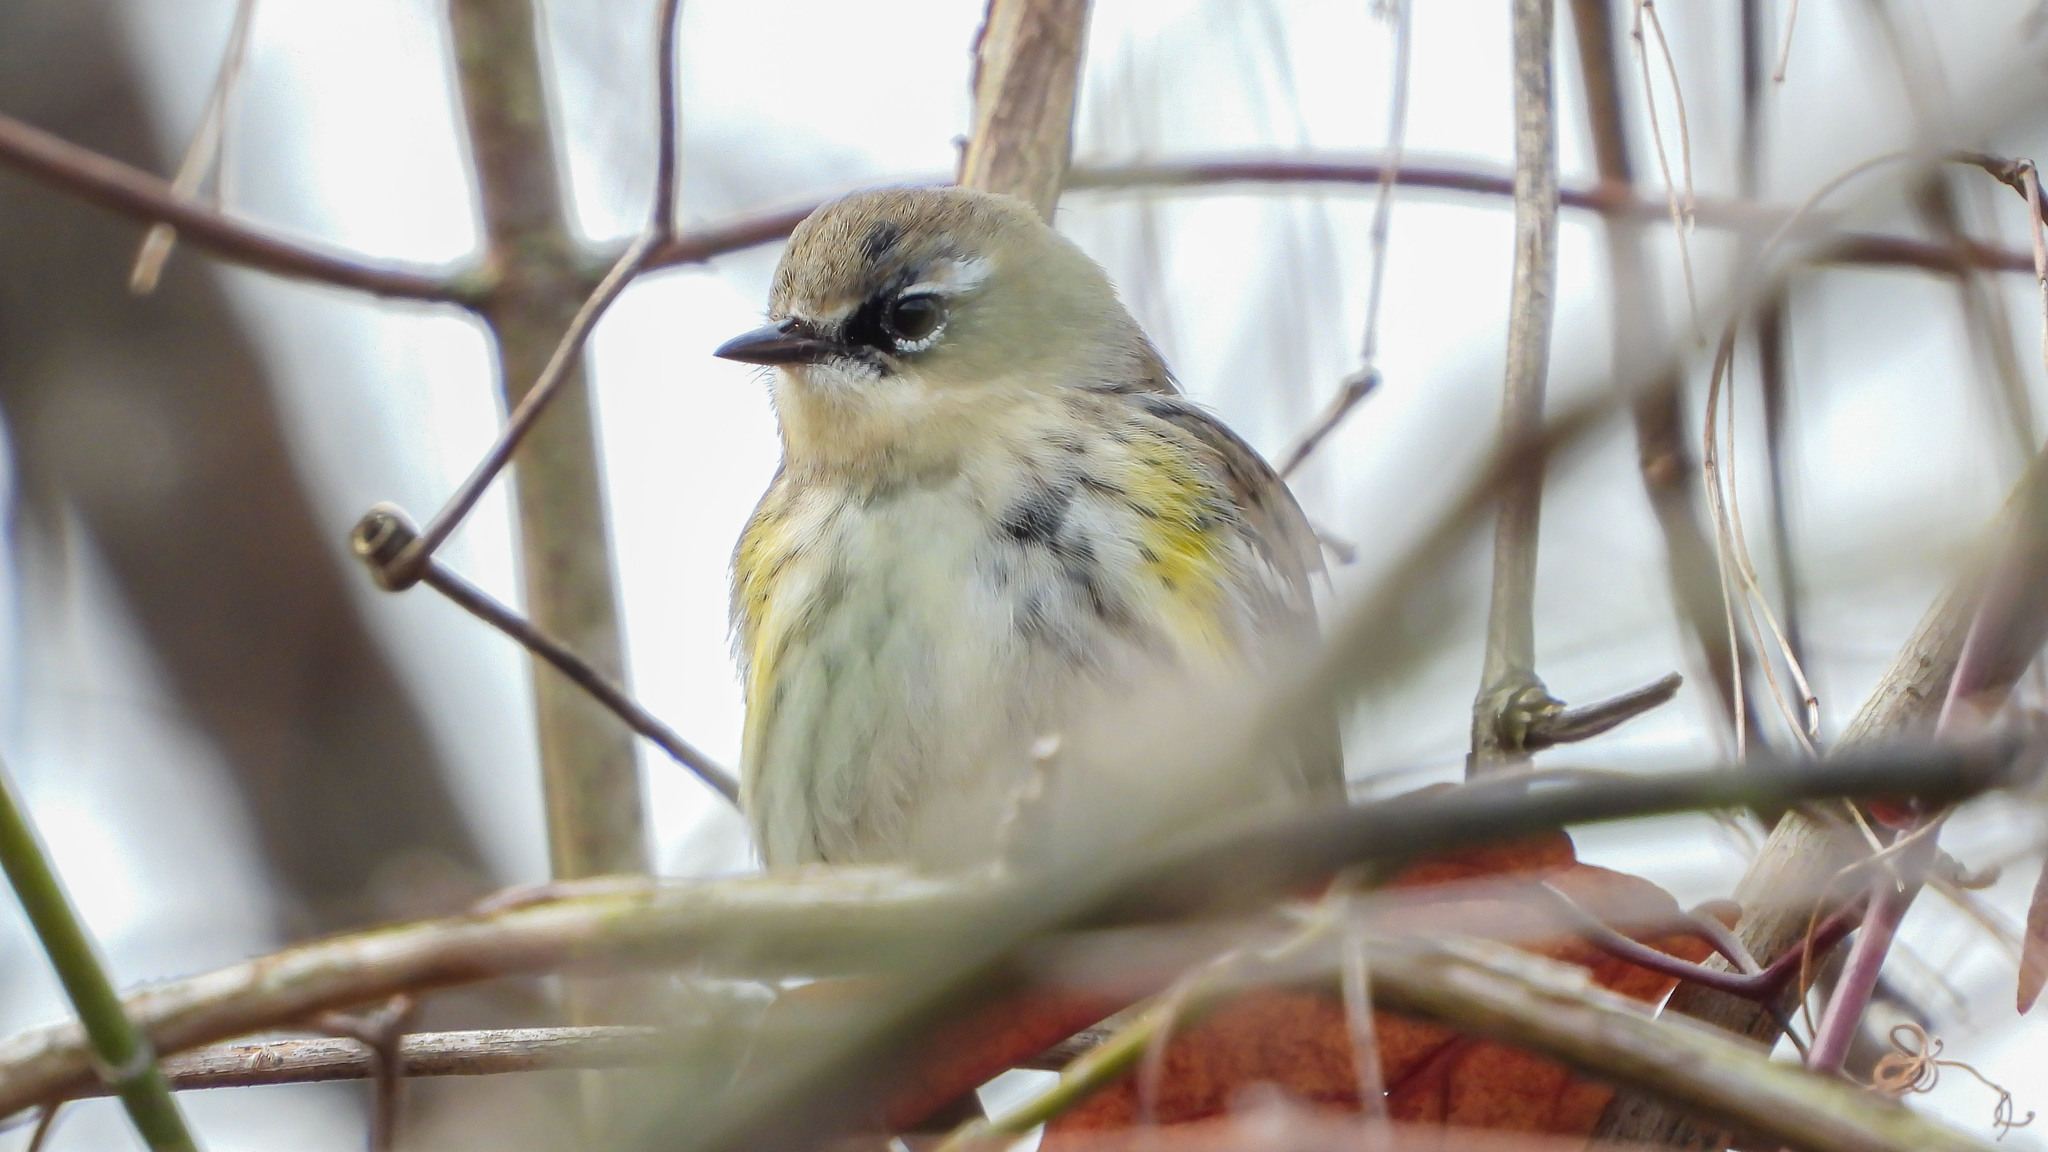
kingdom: Animalia
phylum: Chordata
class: Aves
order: Passeriformes
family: Parulidae
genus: Setophaga
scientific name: Setophaga coronata
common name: Myrtle warbler
